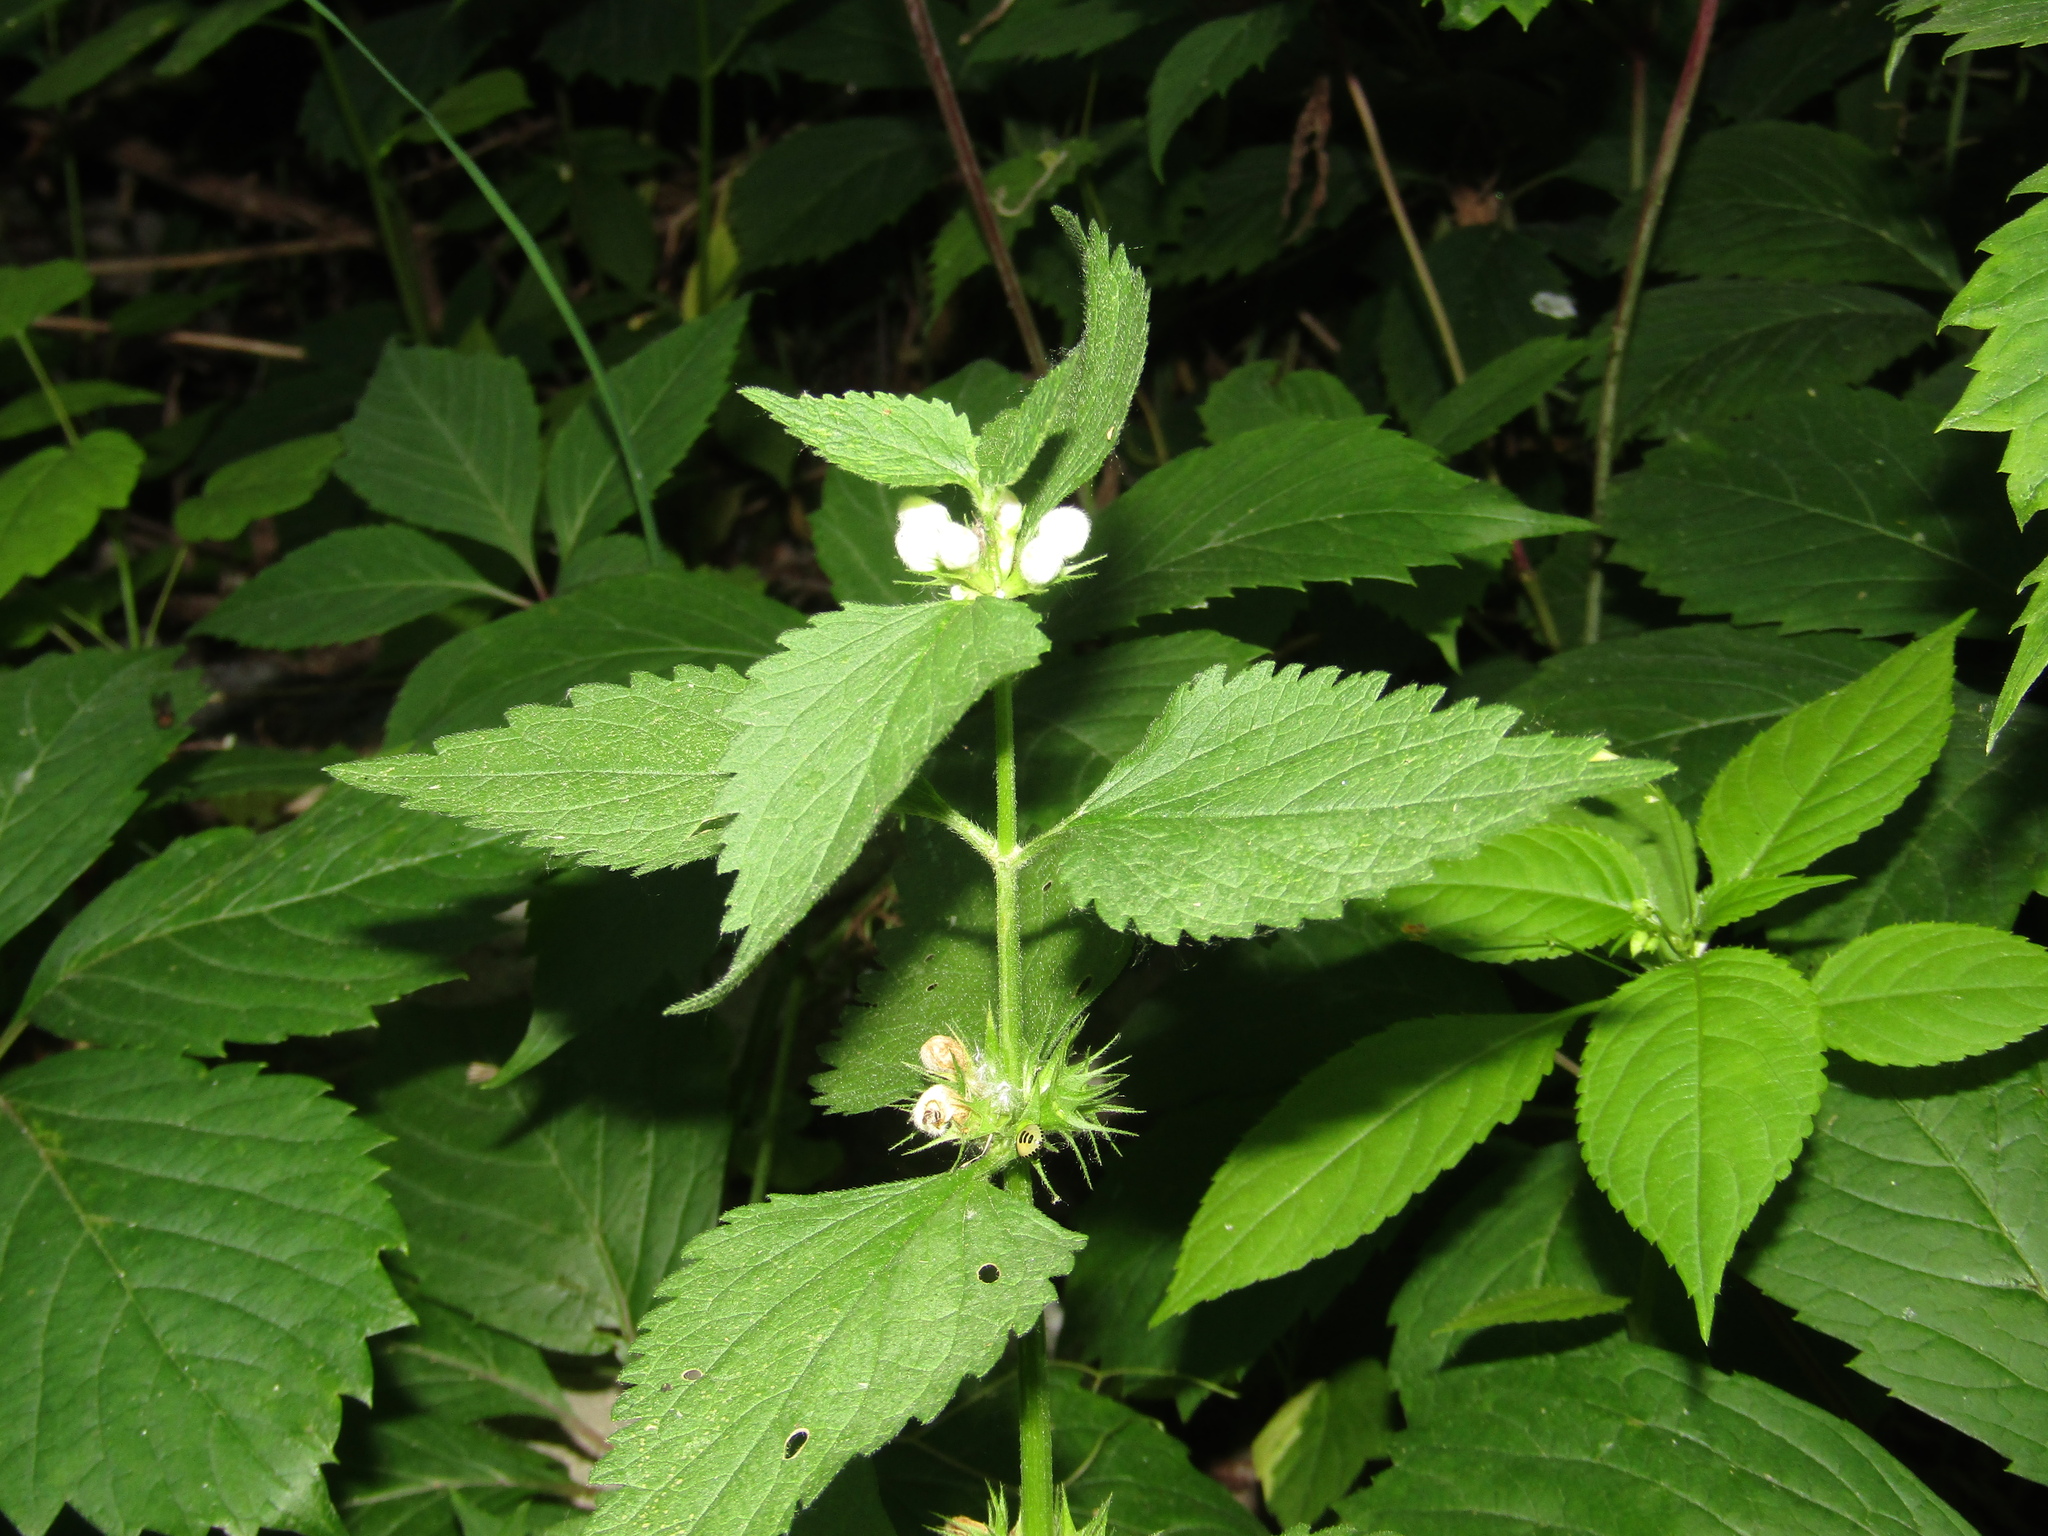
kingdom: Plantae
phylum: Tracheophyta
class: Magnoliopsida
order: Lamiales
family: Lamiaceae
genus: Lamium
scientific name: Lamium album
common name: White dead-nettle
